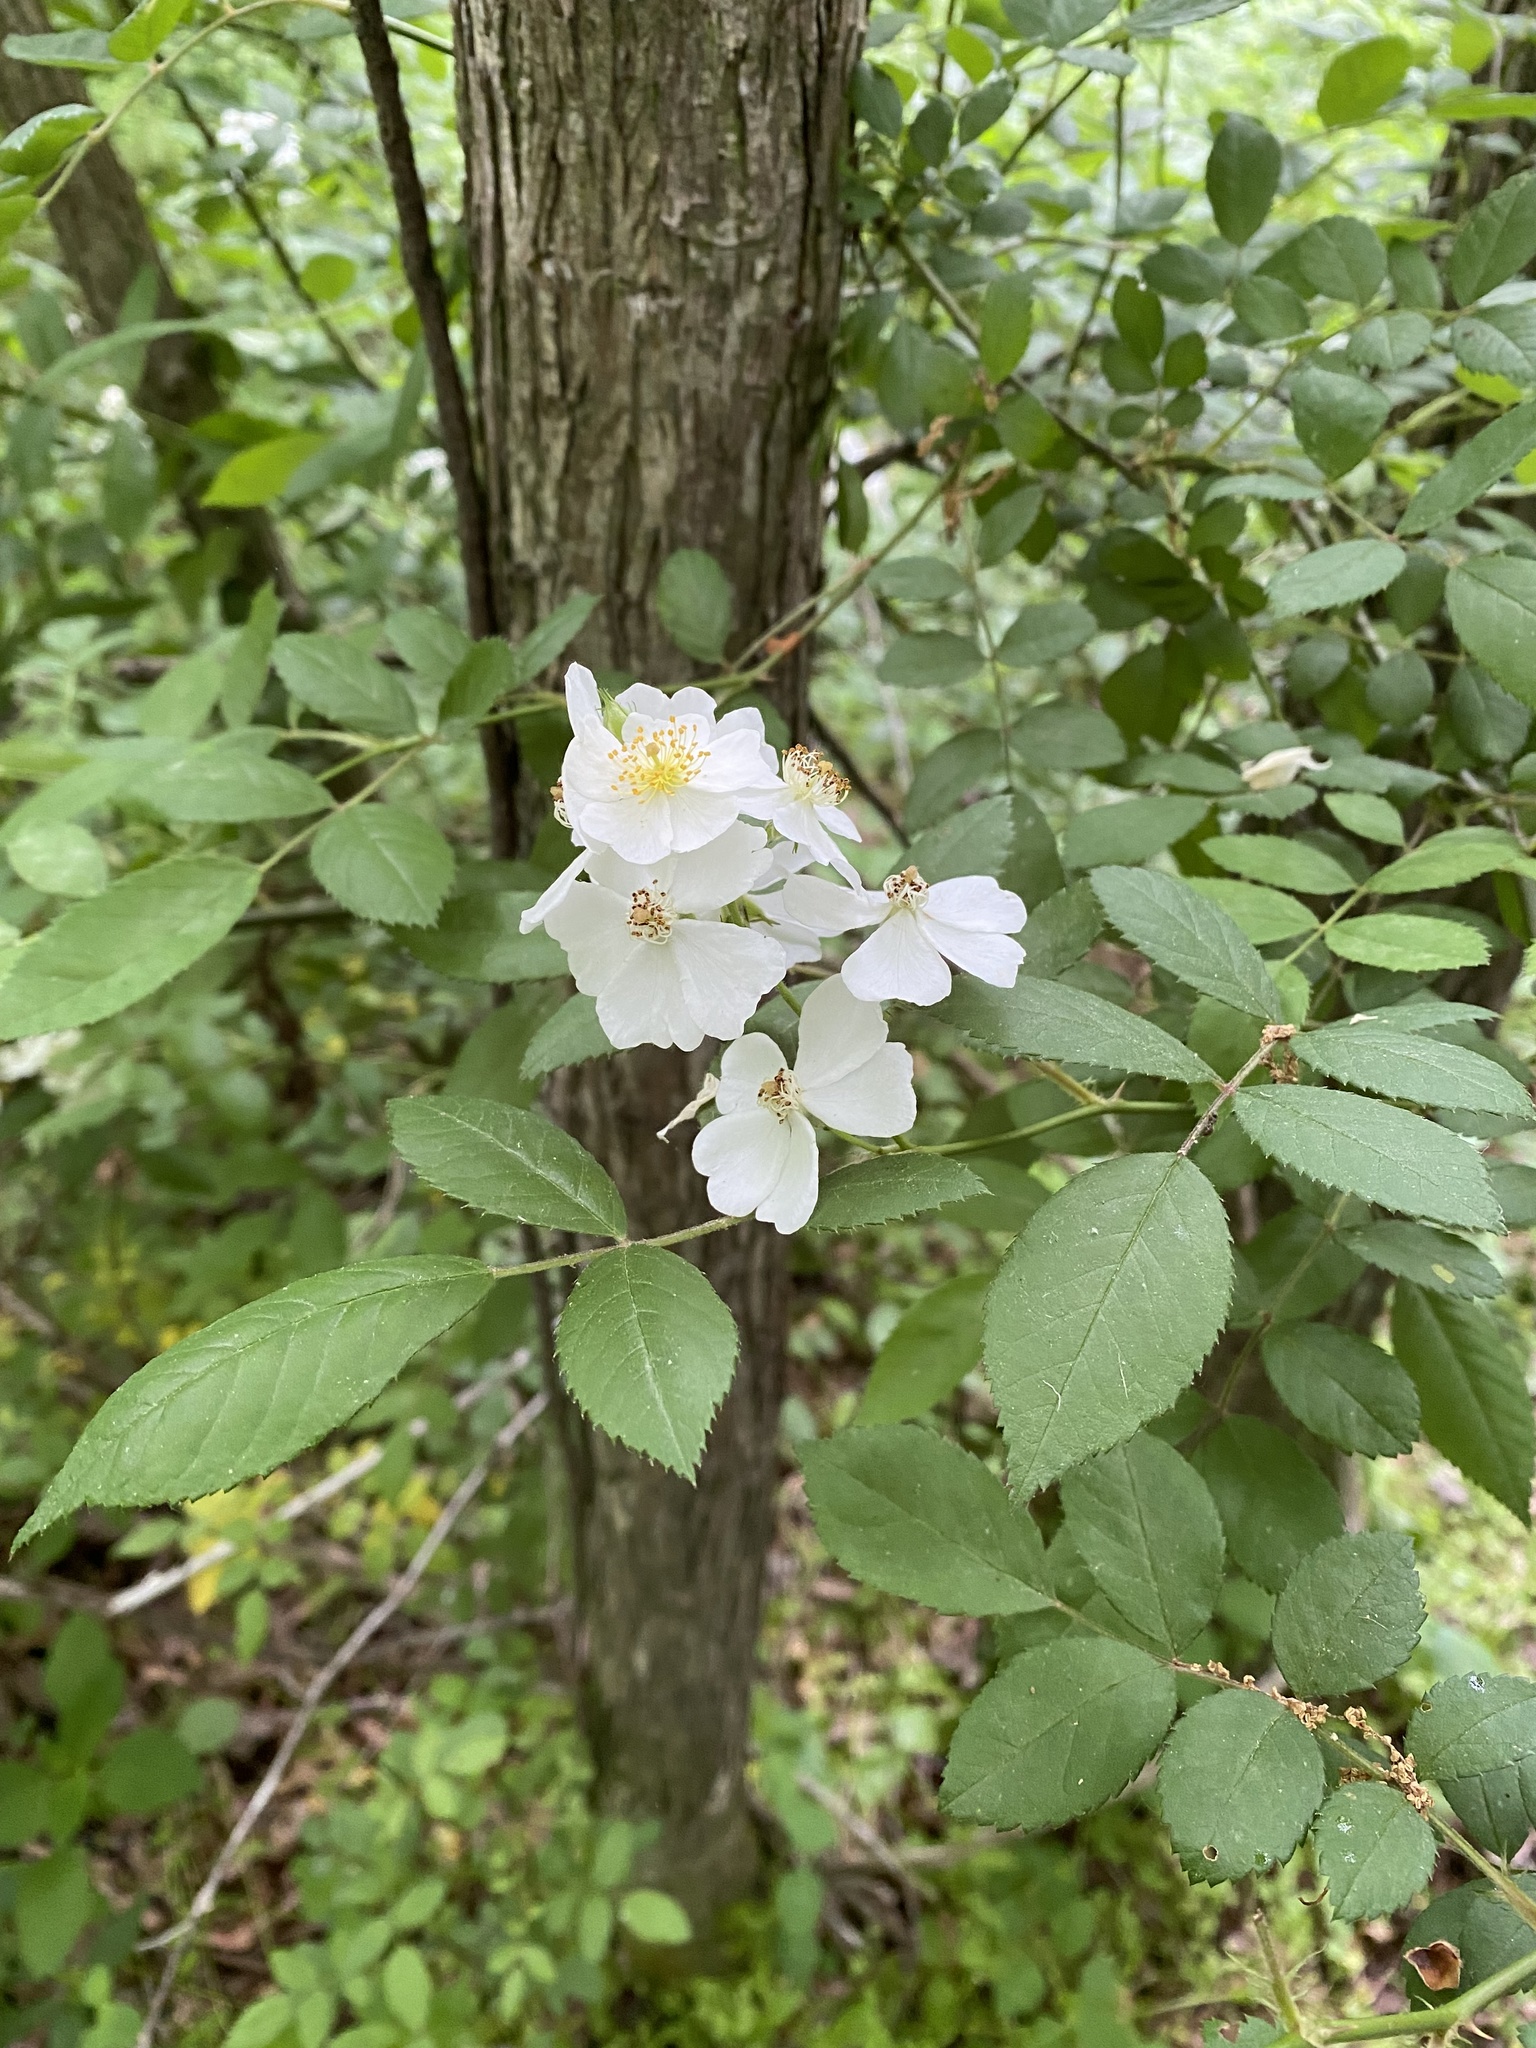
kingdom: Plantae
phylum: Tracheophyta
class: Magnoliopsida
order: Rosales
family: Rosaceae
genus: Rosa
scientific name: Rosa multiflora
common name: Multiflora rose
